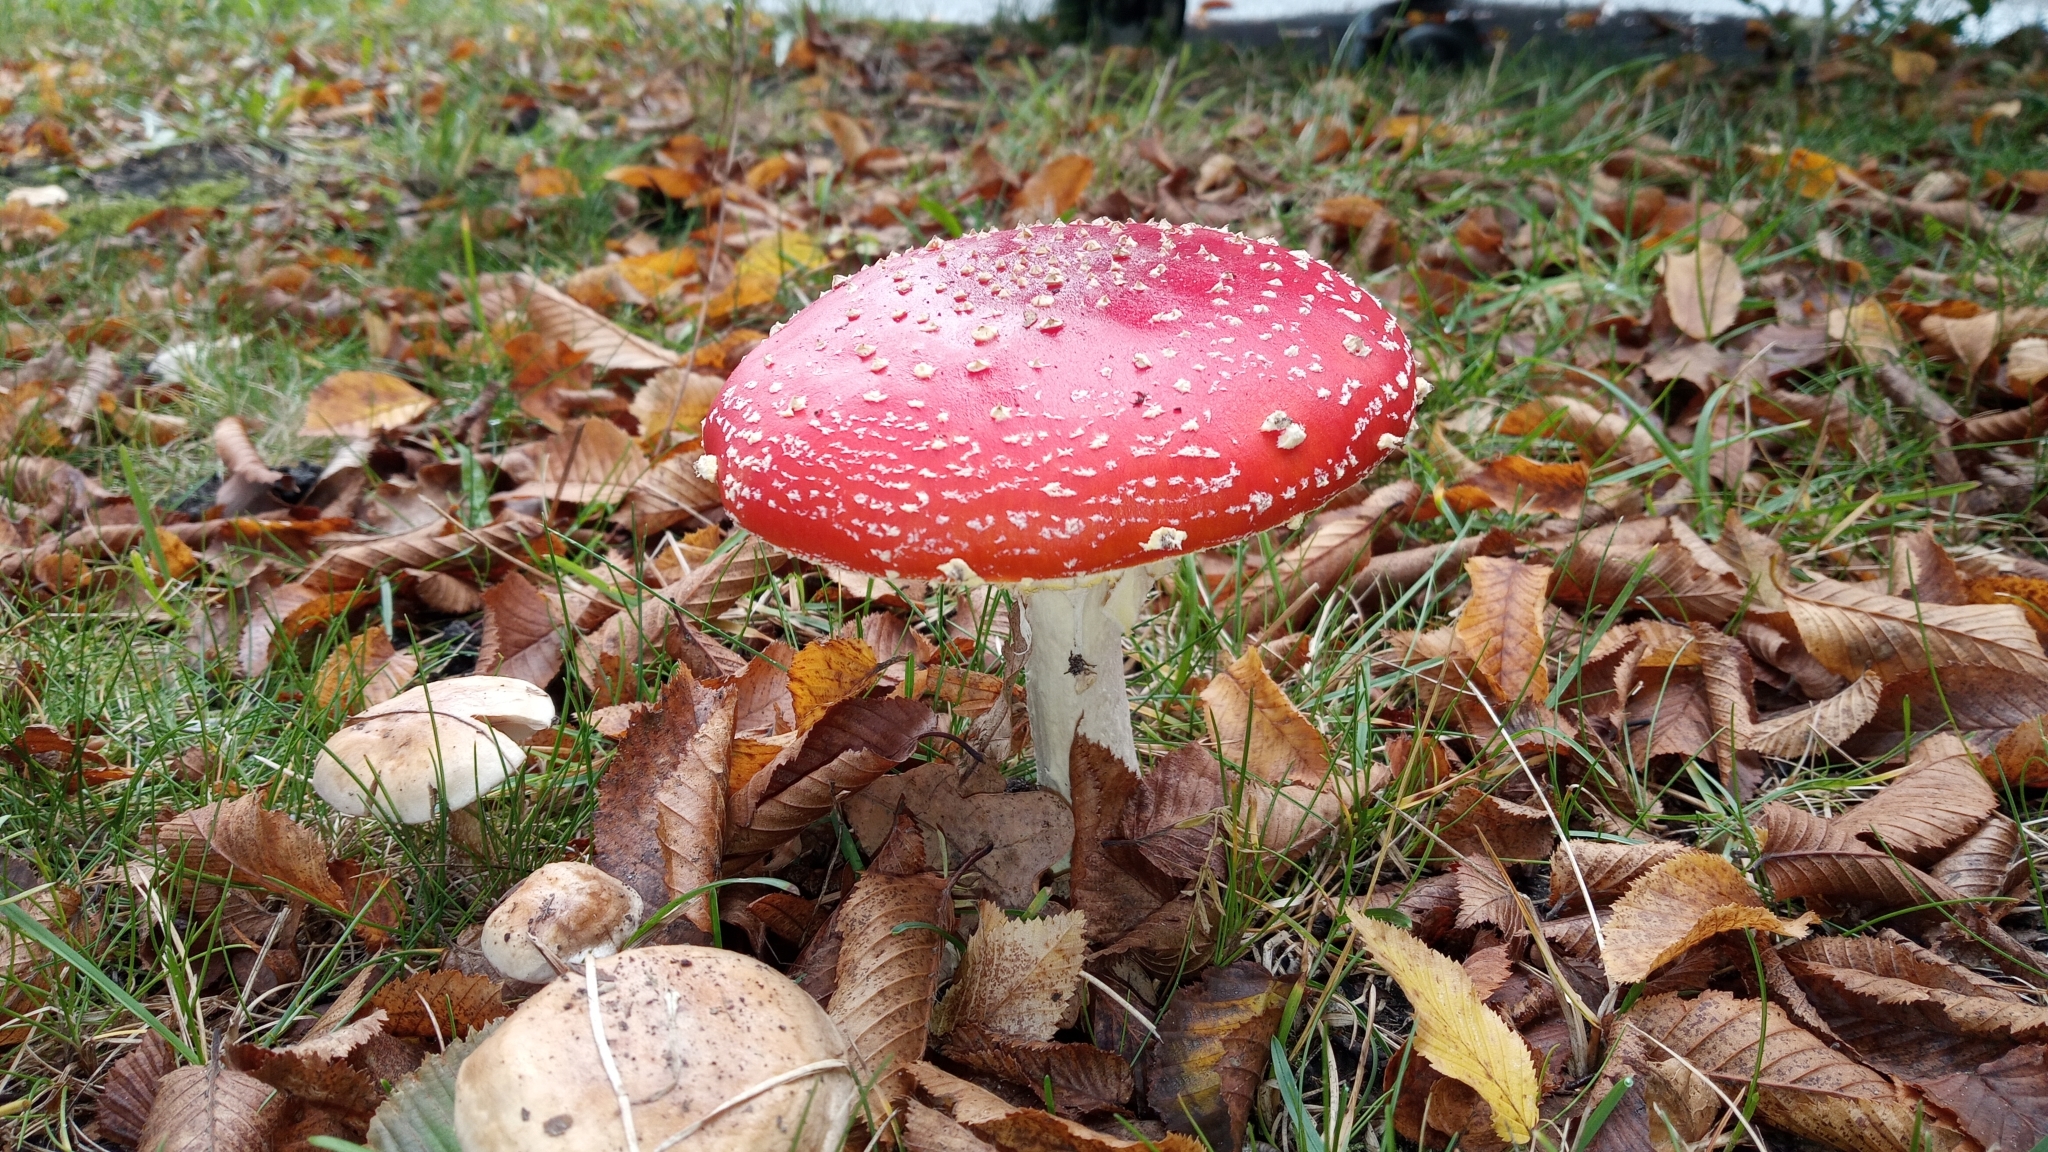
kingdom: Fungi
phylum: Basidiomycota
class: Agaricomycetes
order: Agaricales
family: Amanitaceae
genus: Amanita
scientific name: Amanita muscaria
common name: Fly agaric
